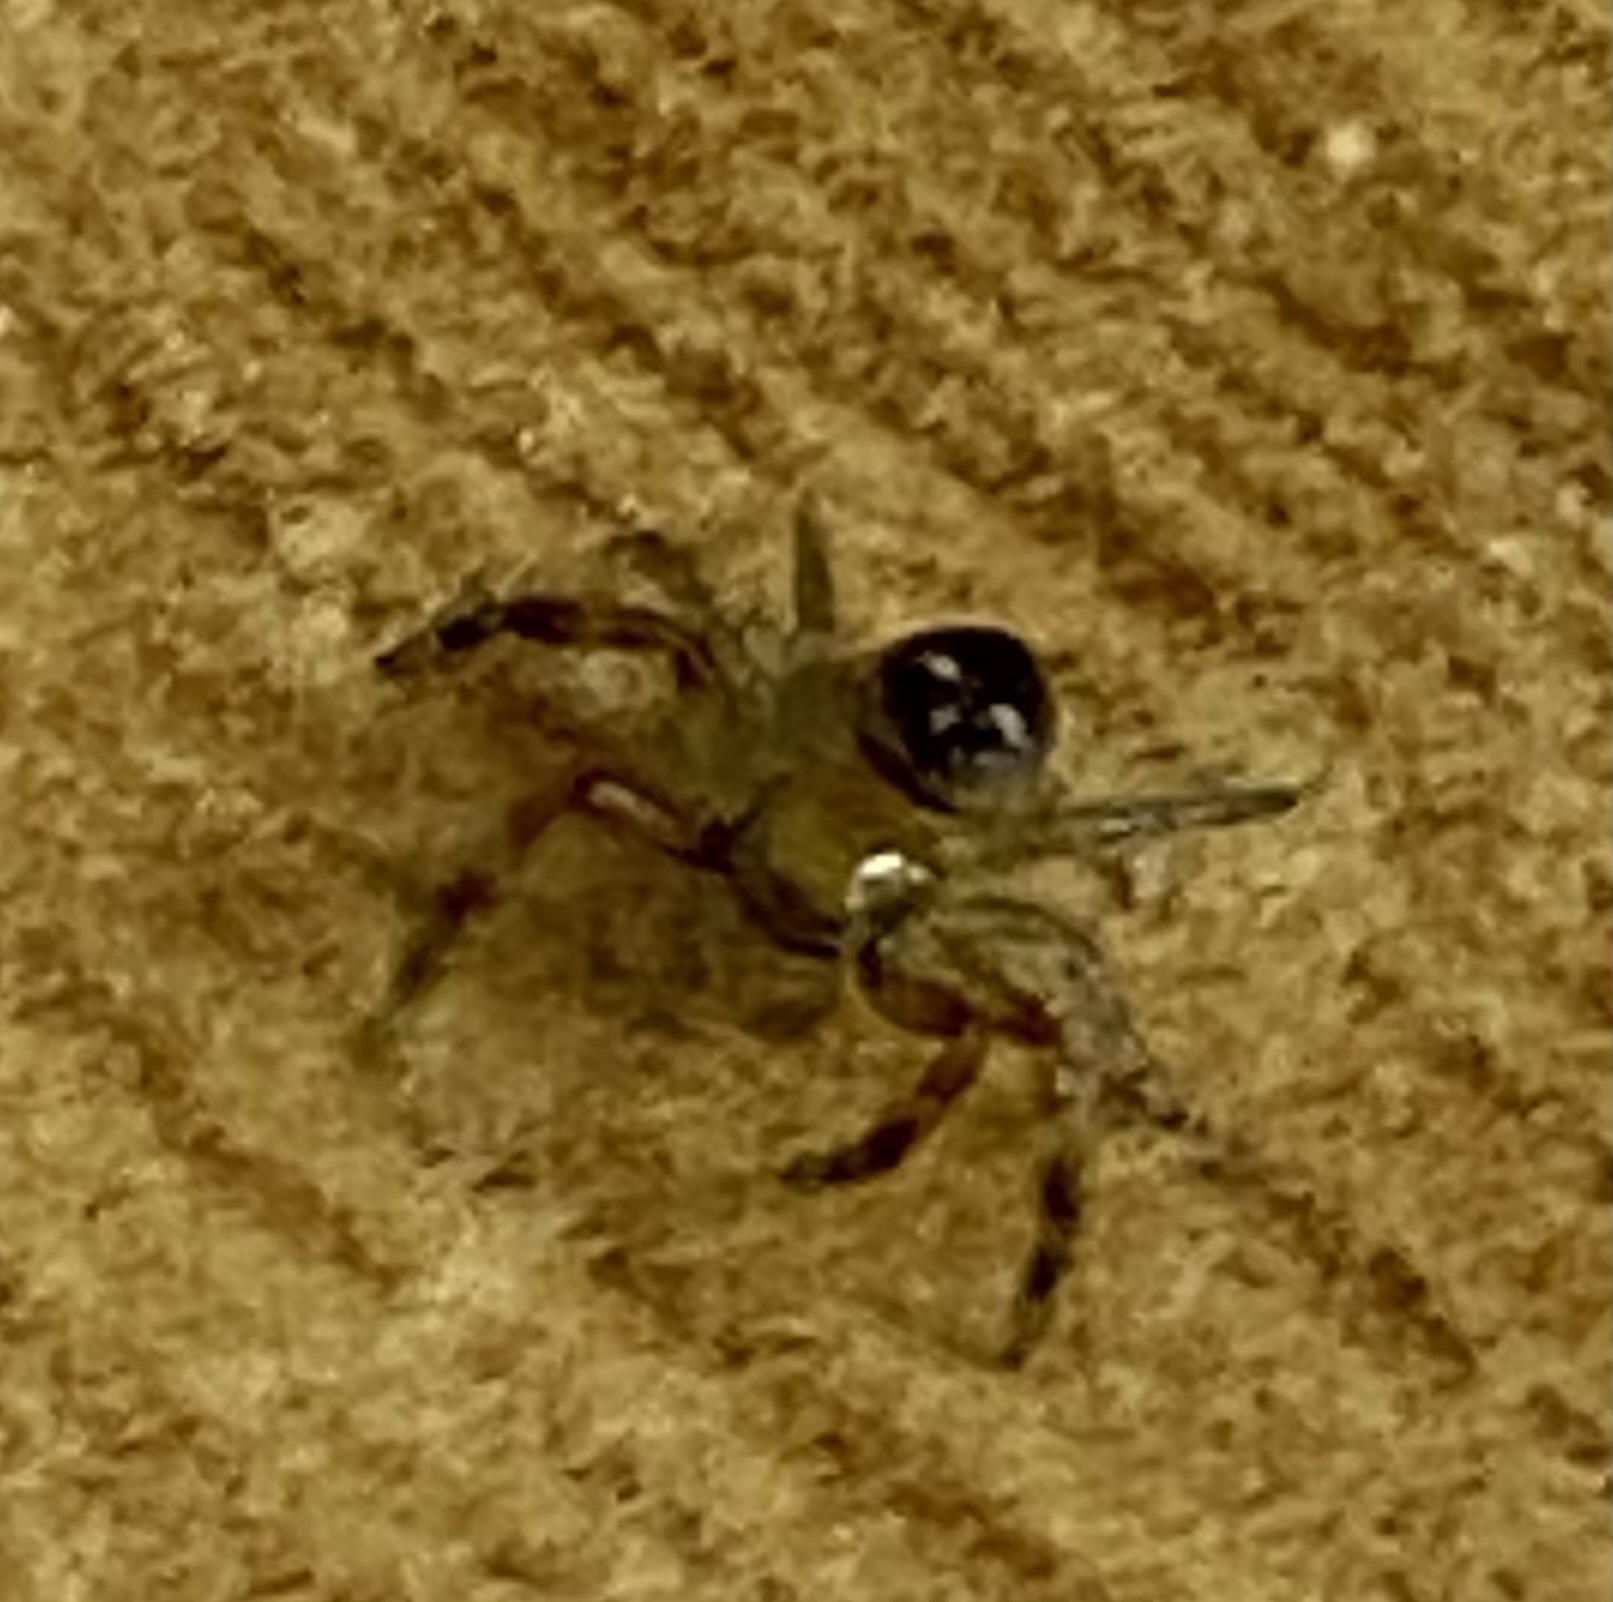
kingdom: Animalia
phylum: Arthropoda
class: Arachnida
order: Araneae
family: Thomisidae
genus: Synema
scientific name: Synema marlothi
